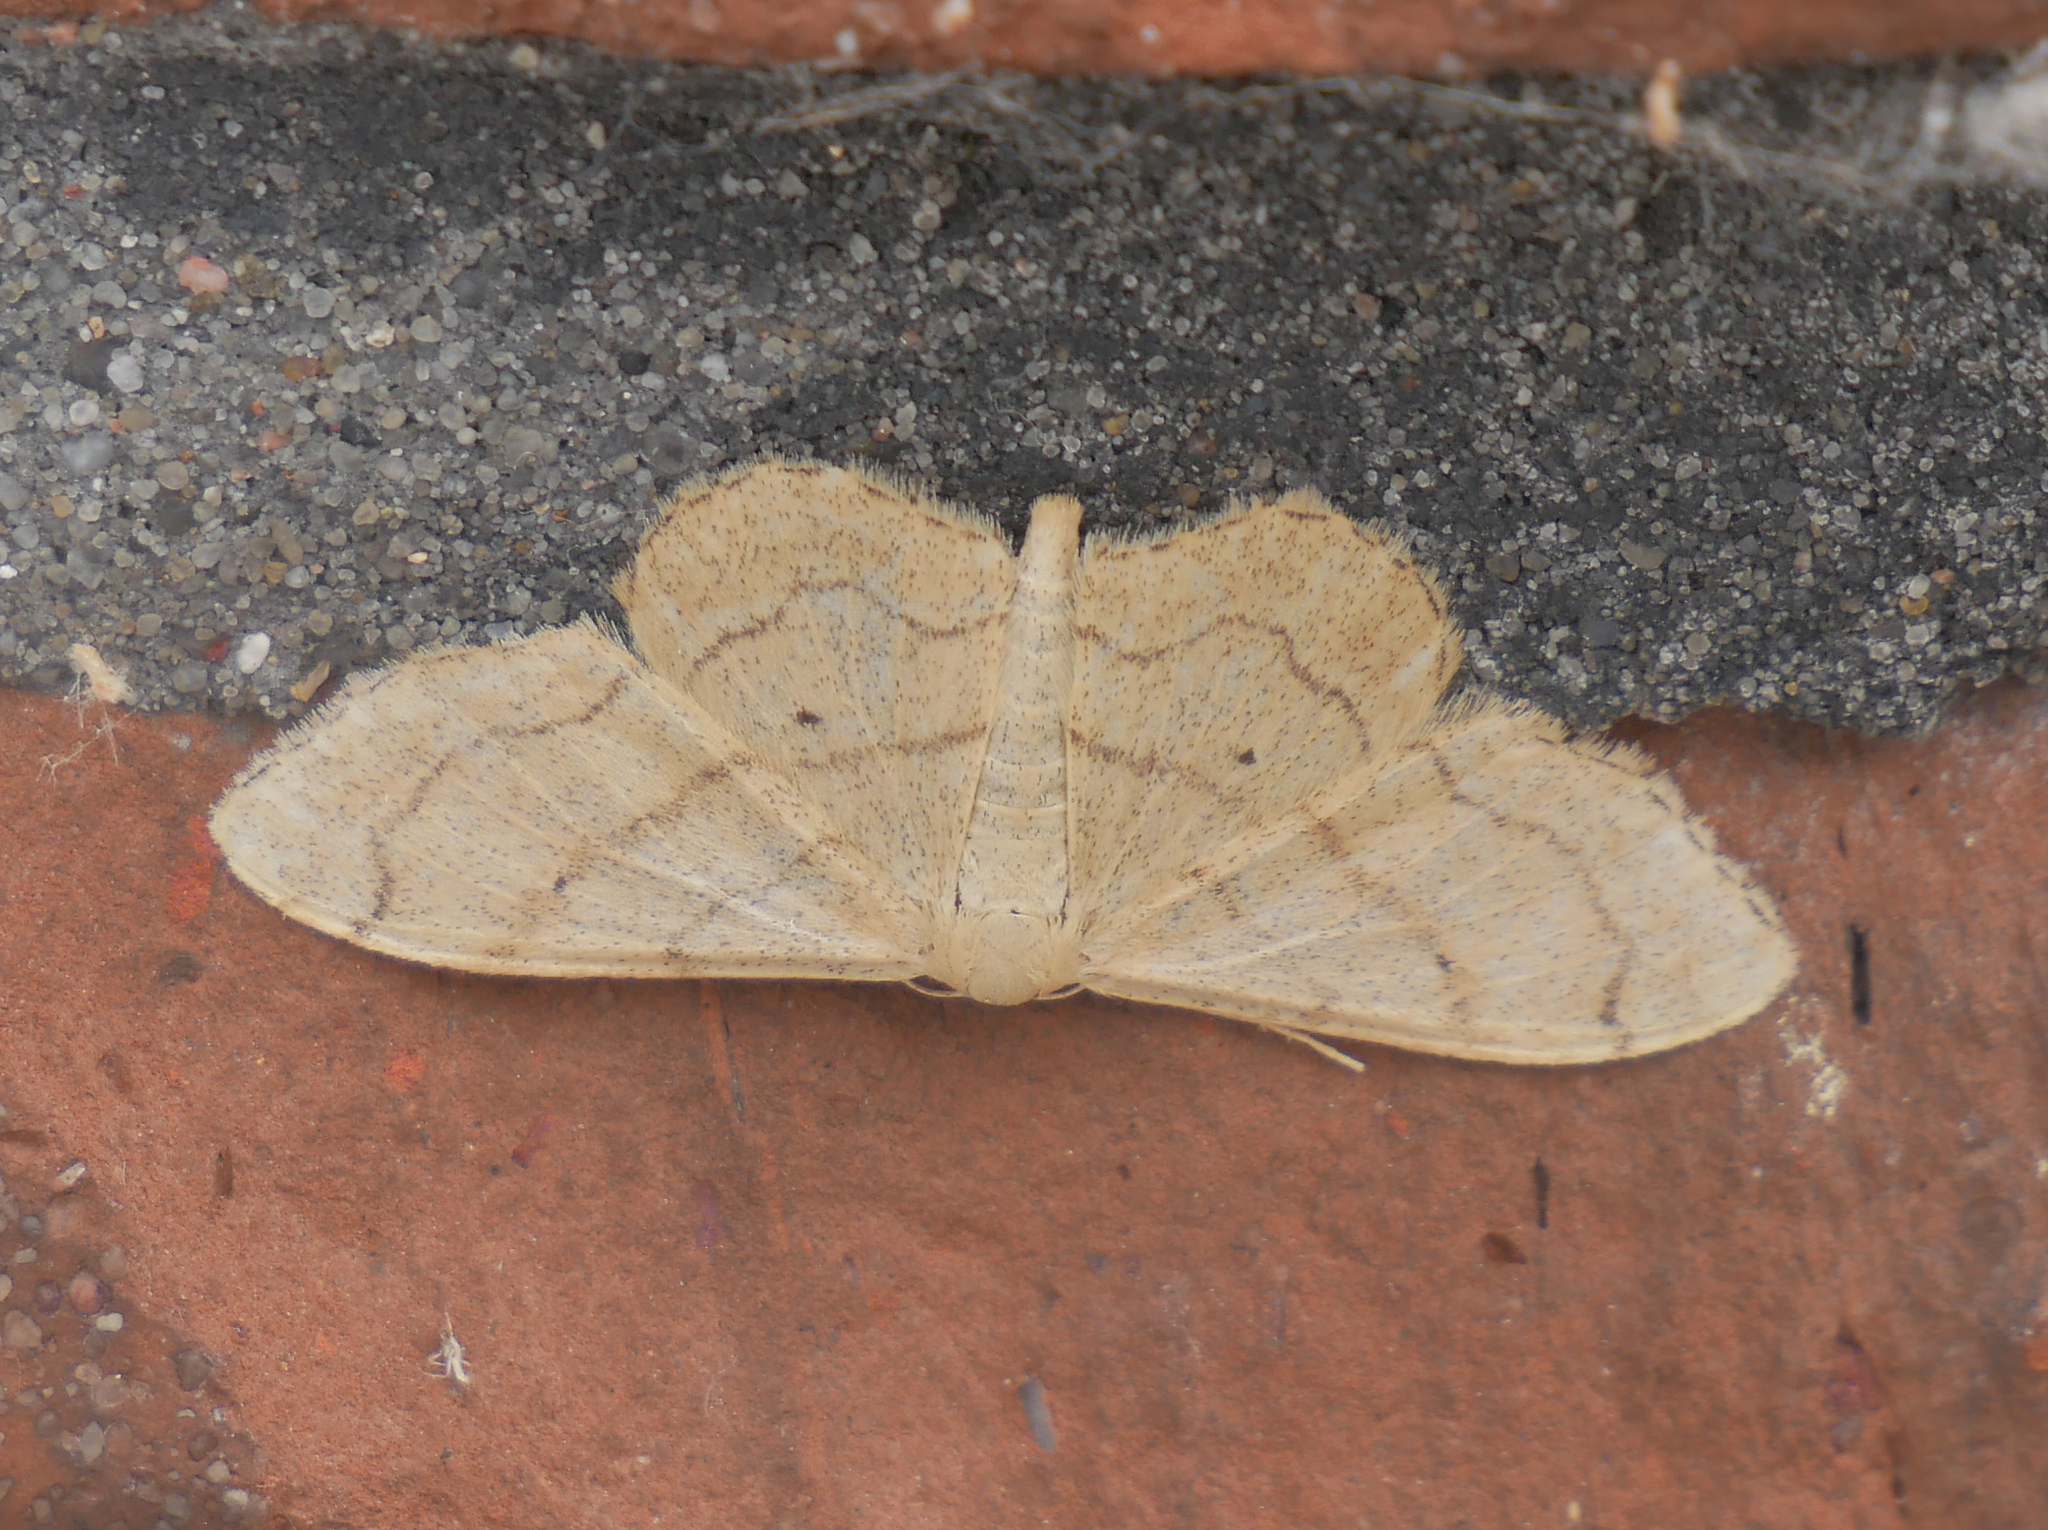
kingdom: Animalia
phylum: Arthropoda
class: Insecta
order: Lepidoptera
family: Geometridae
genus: Idaea
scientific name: Idaea aversata
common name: Riband wave
